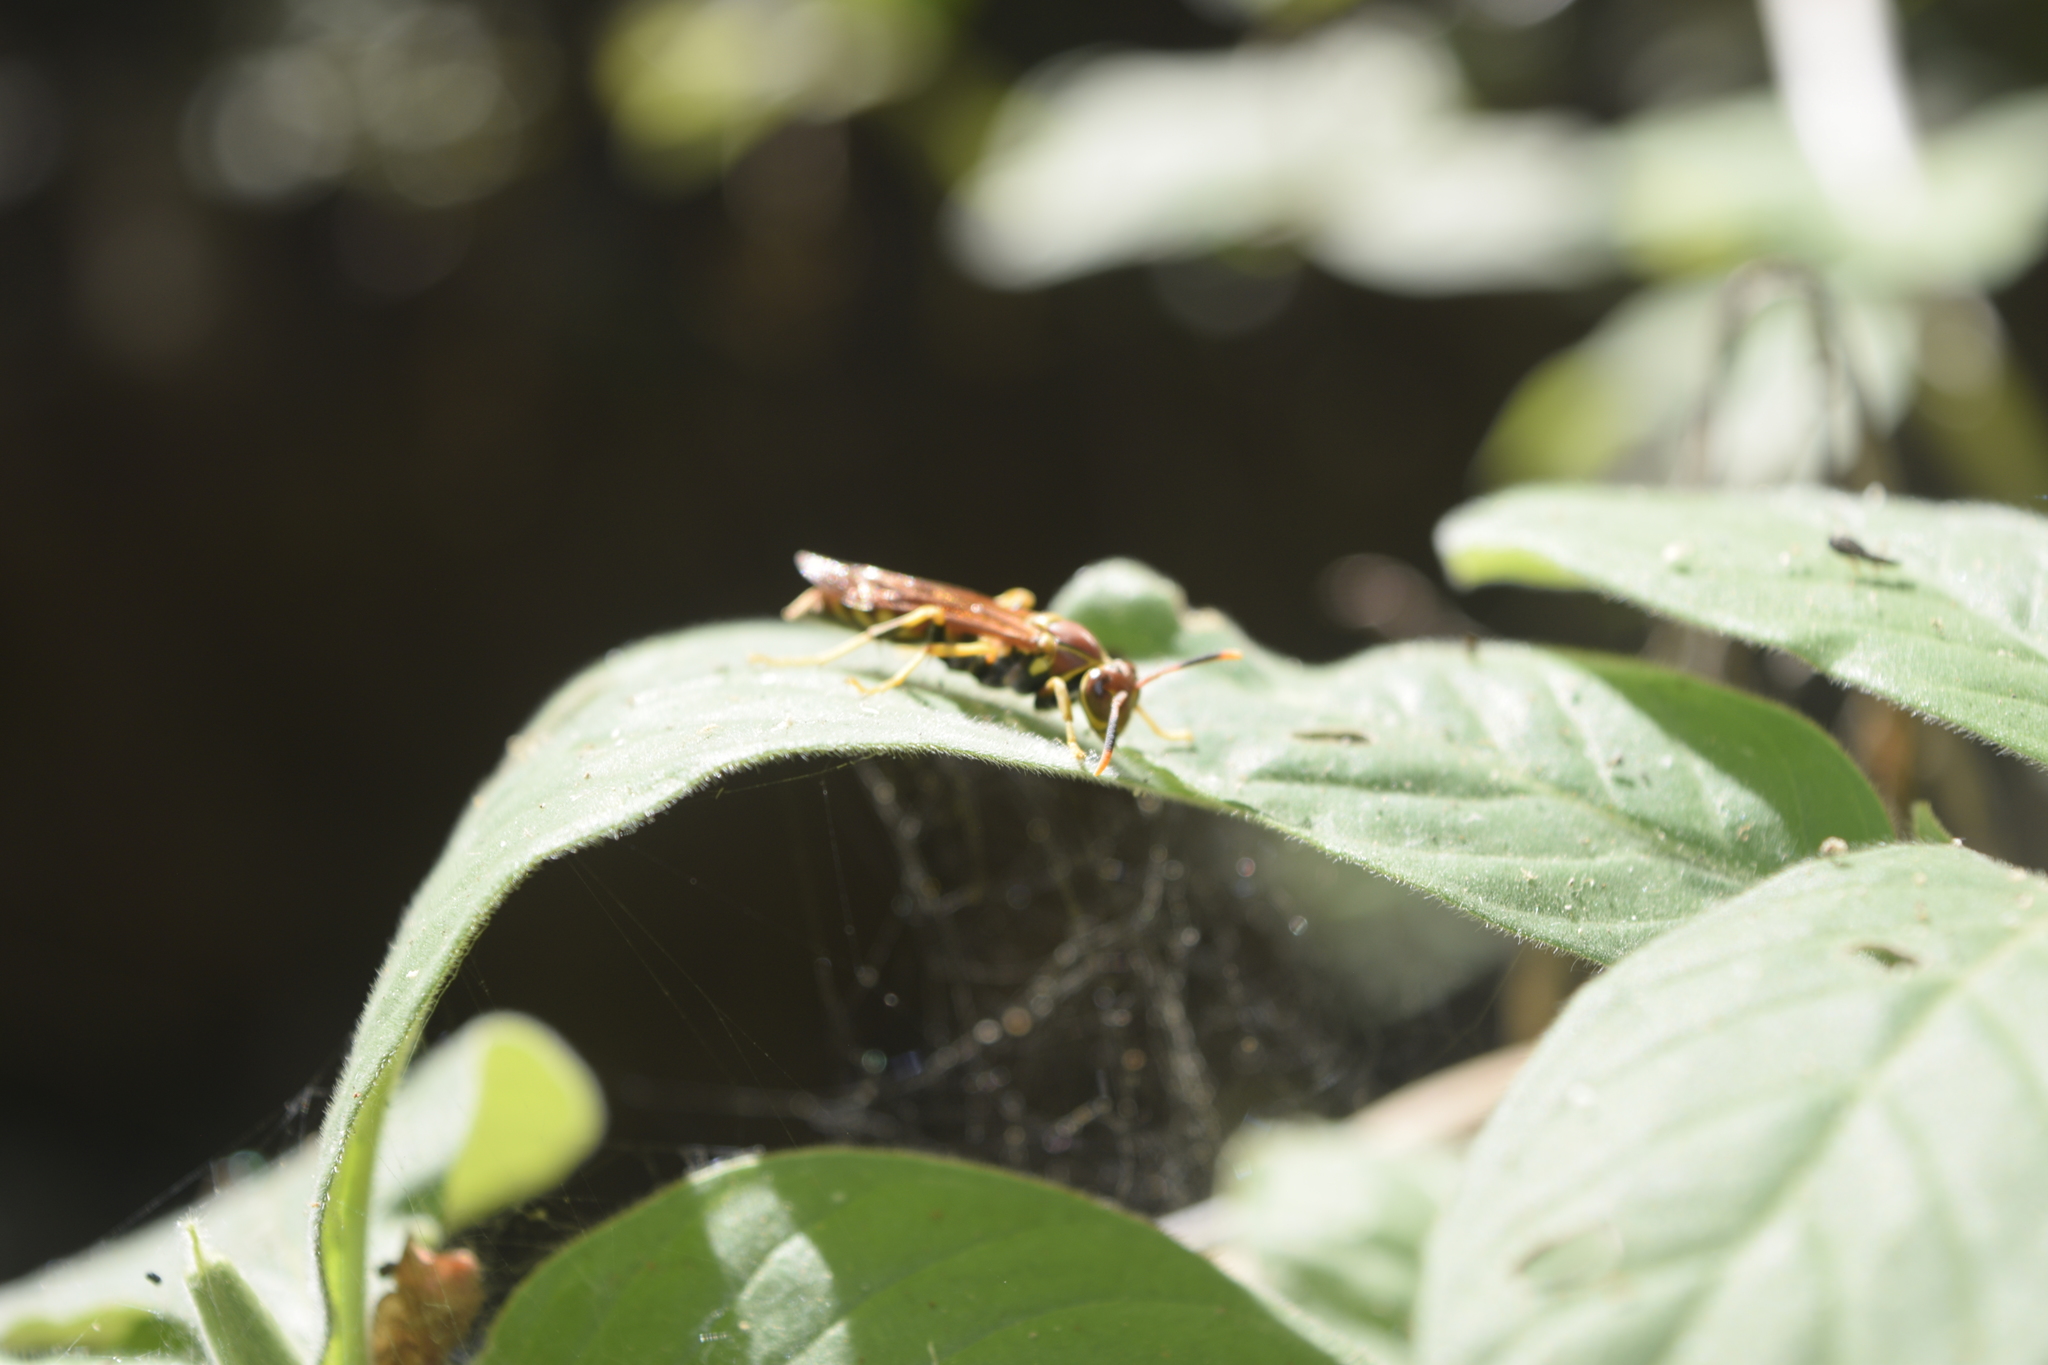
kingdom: Animalia
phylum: Arthropoda
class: Insecta
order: Hymenoptera
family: Eumenidae
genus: Polistes
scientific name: Polistes instabilis
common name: Unstable paper wasp
